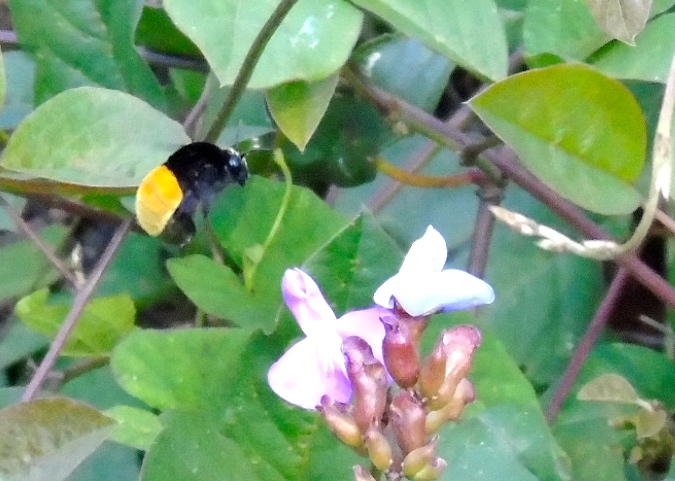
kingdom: Animalia
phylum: Arthropoda
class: Insecta
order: Hymenoptera
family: Apidae
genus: Eulaema
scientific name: Eulaema polychroma
